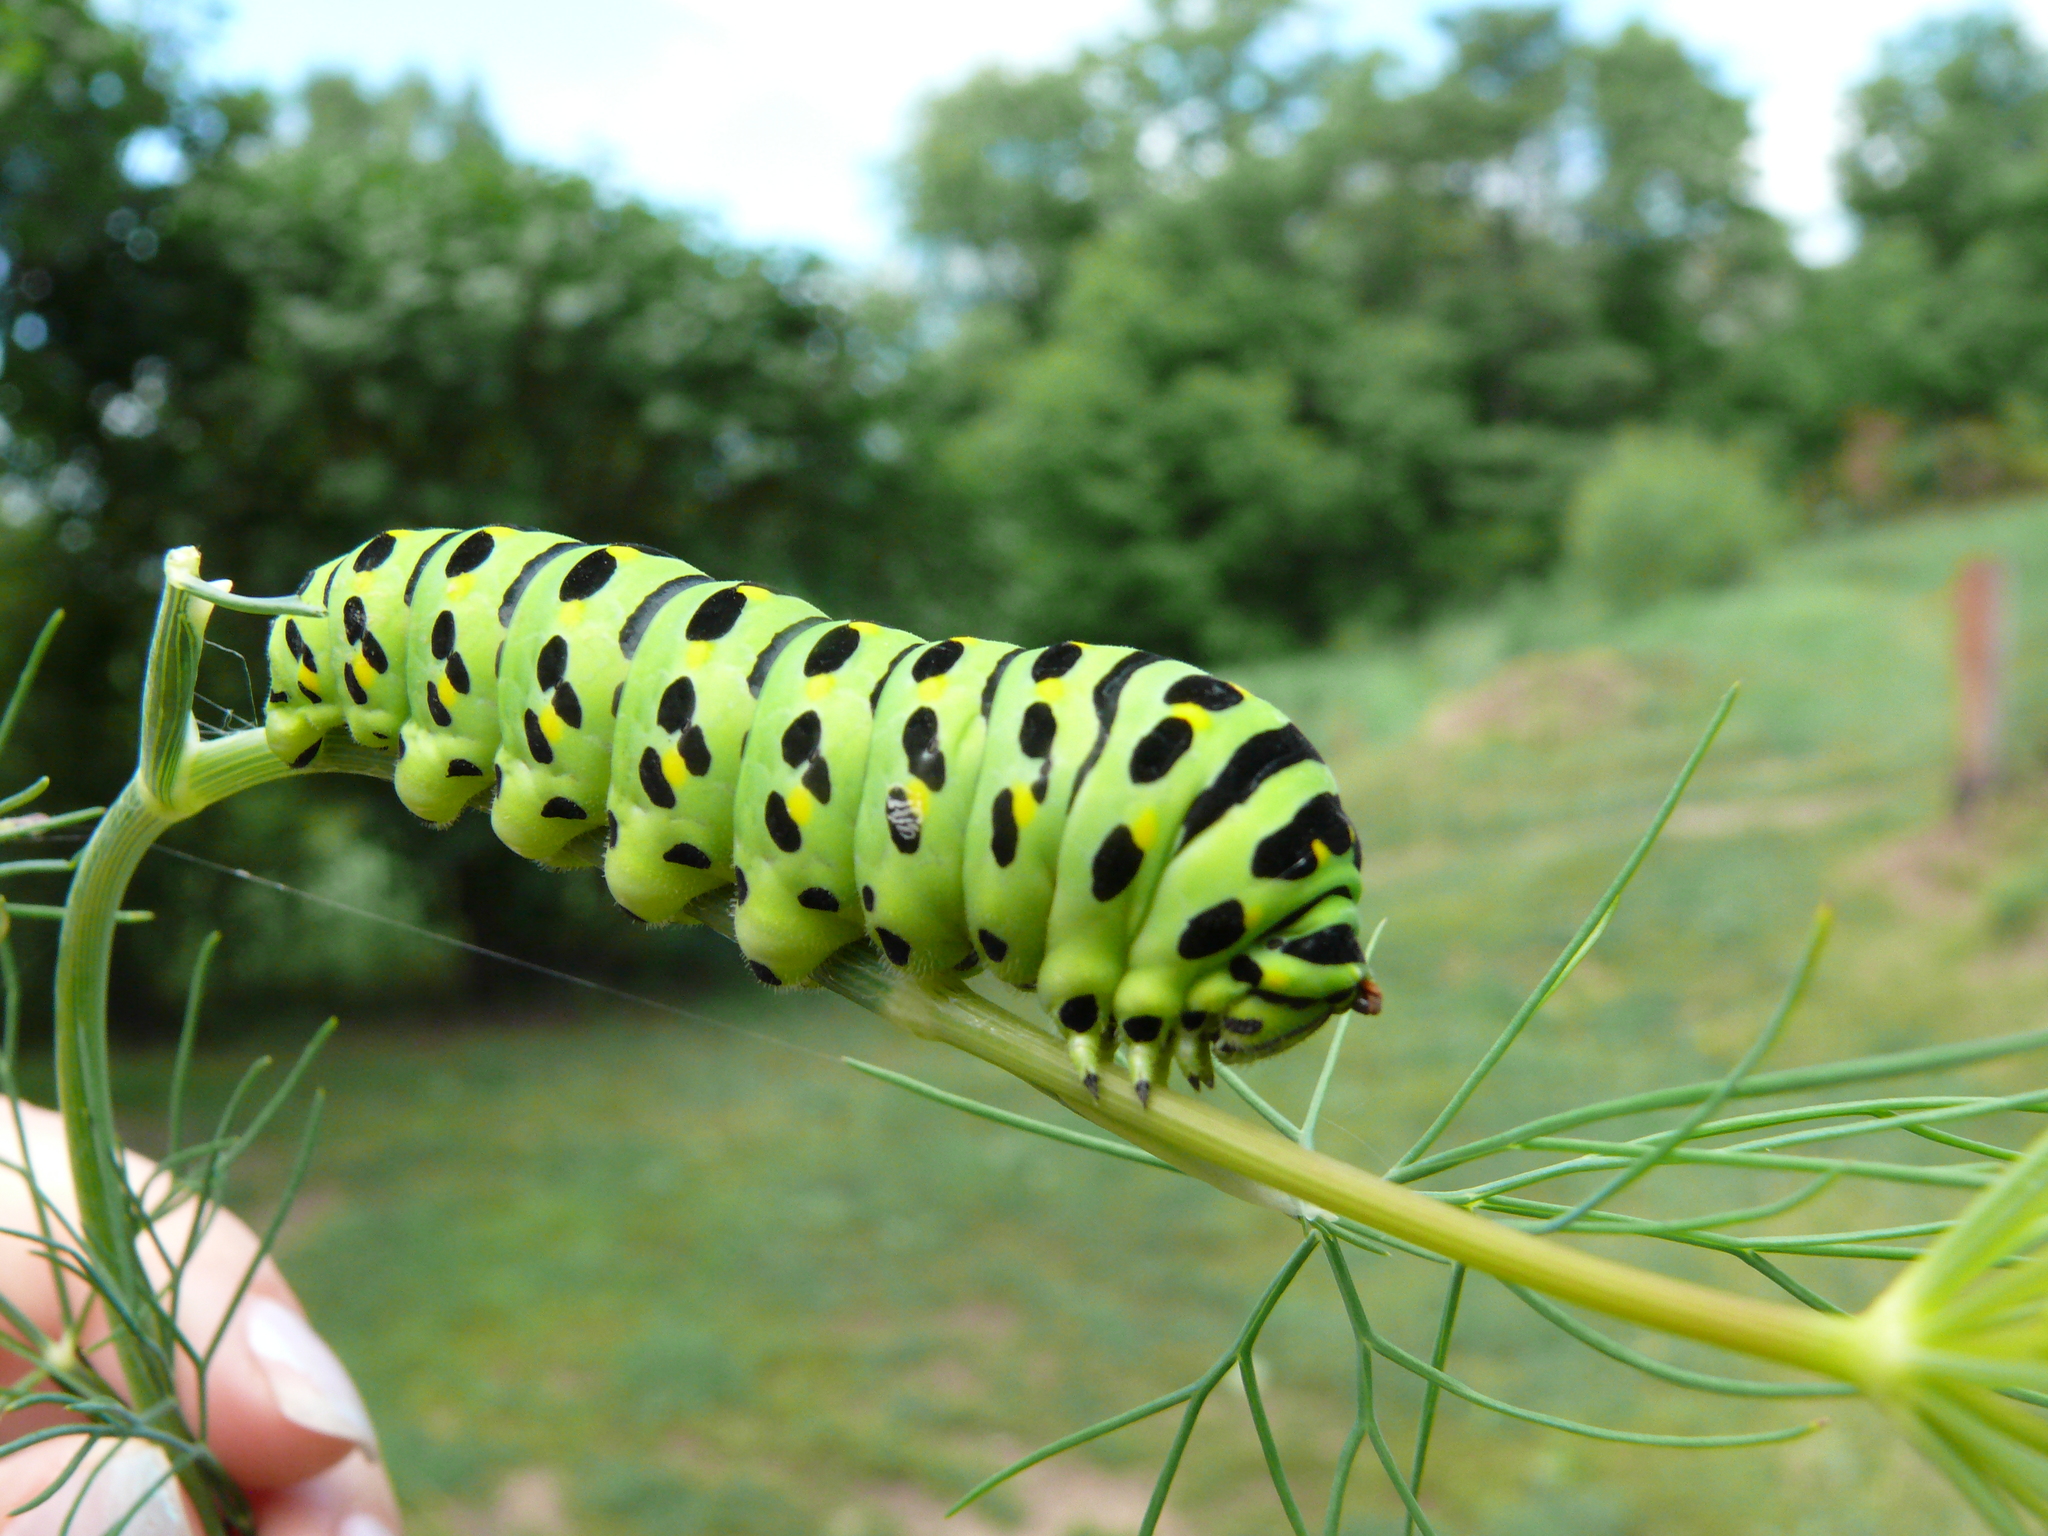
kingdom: Animalia
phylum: Arthropoda
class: Insecta
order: Lepidoptera
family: Papilionidae
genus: Papilio
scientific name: Papilio machaon
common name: Swallowtail
